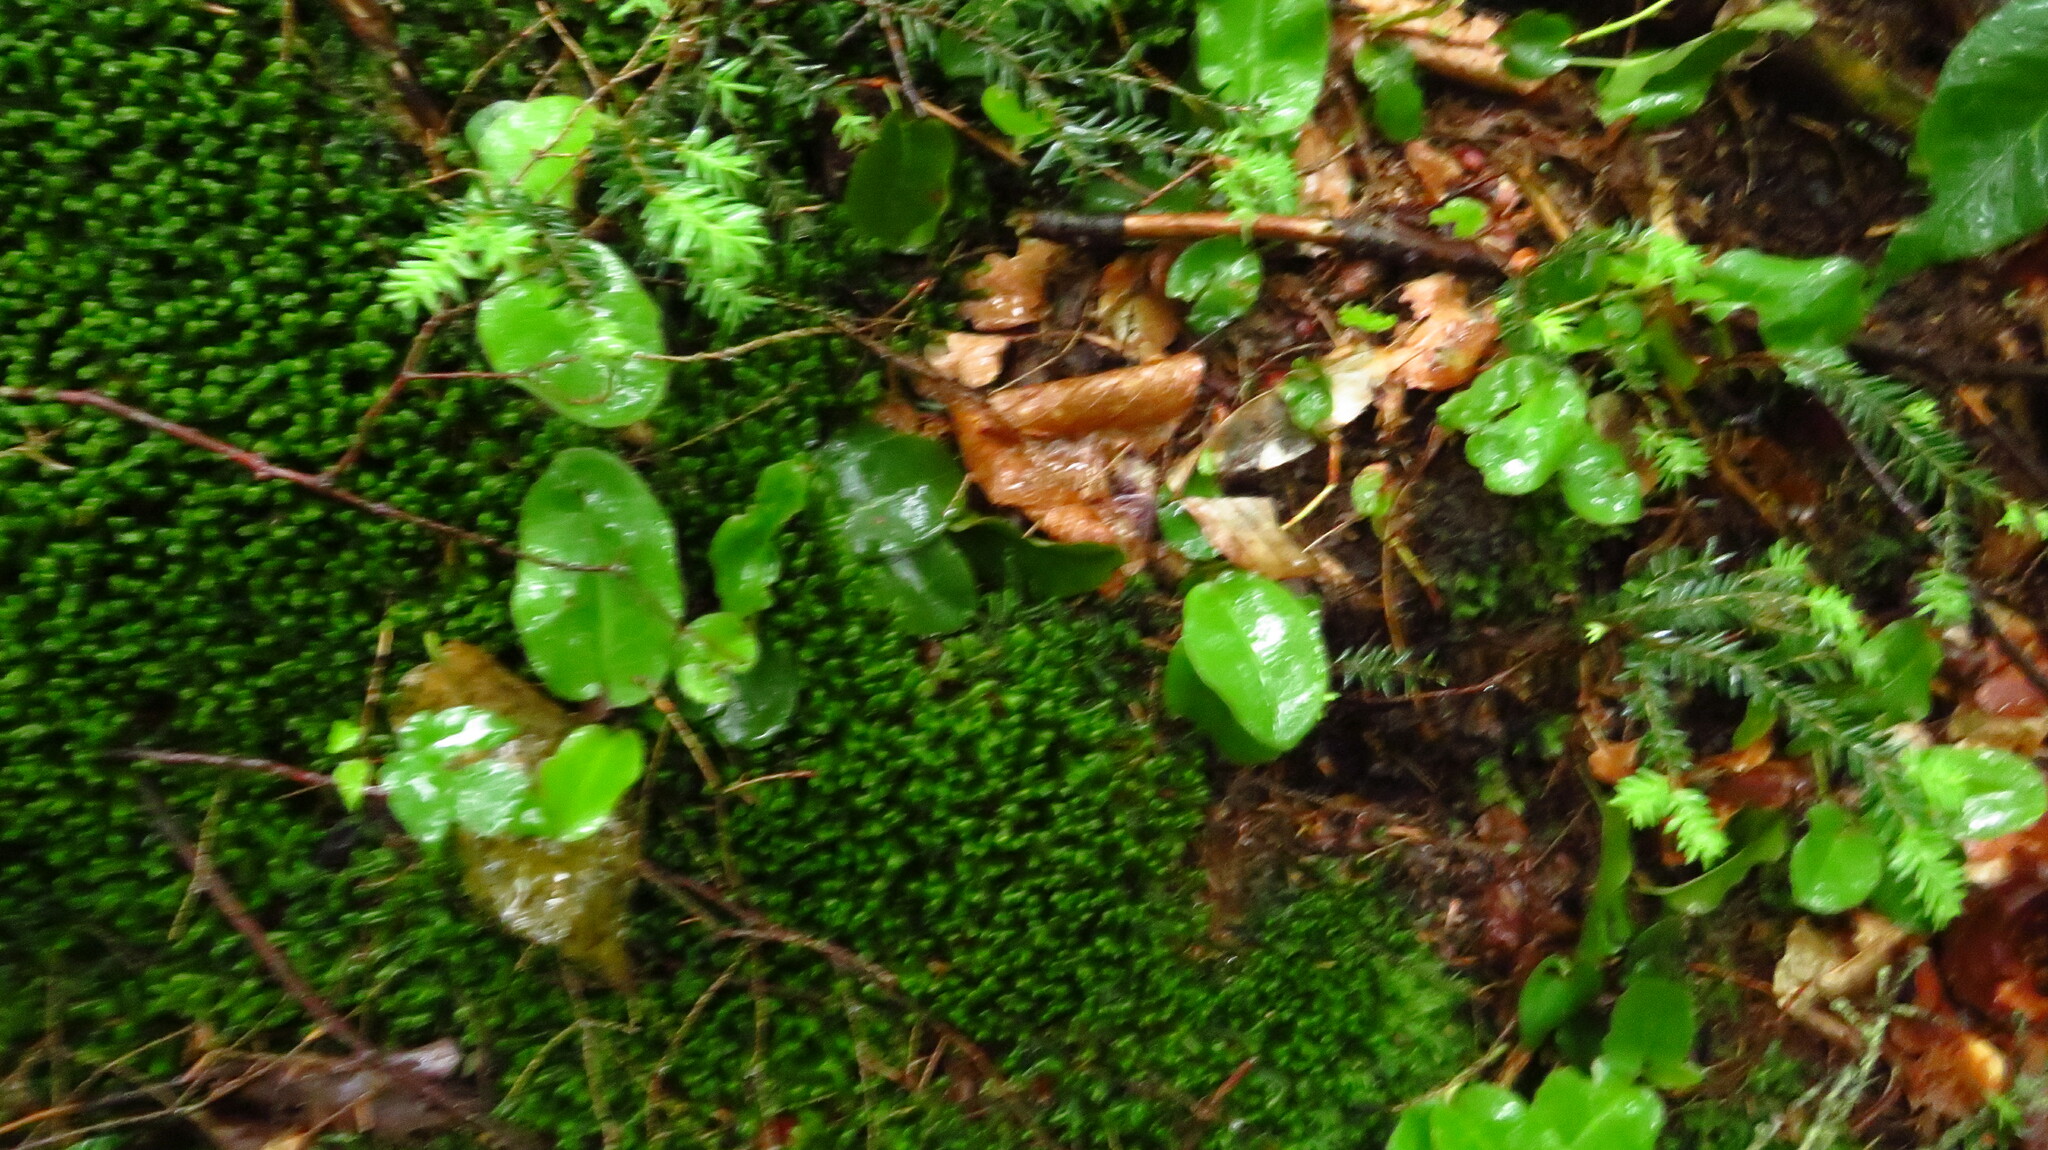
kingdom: Plantae
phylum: Tracheophyta
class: Magnoliopsida
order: Ericales
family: Ericaceae
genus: Epigaea
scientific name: Epigaea repens
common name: Gravelroot
